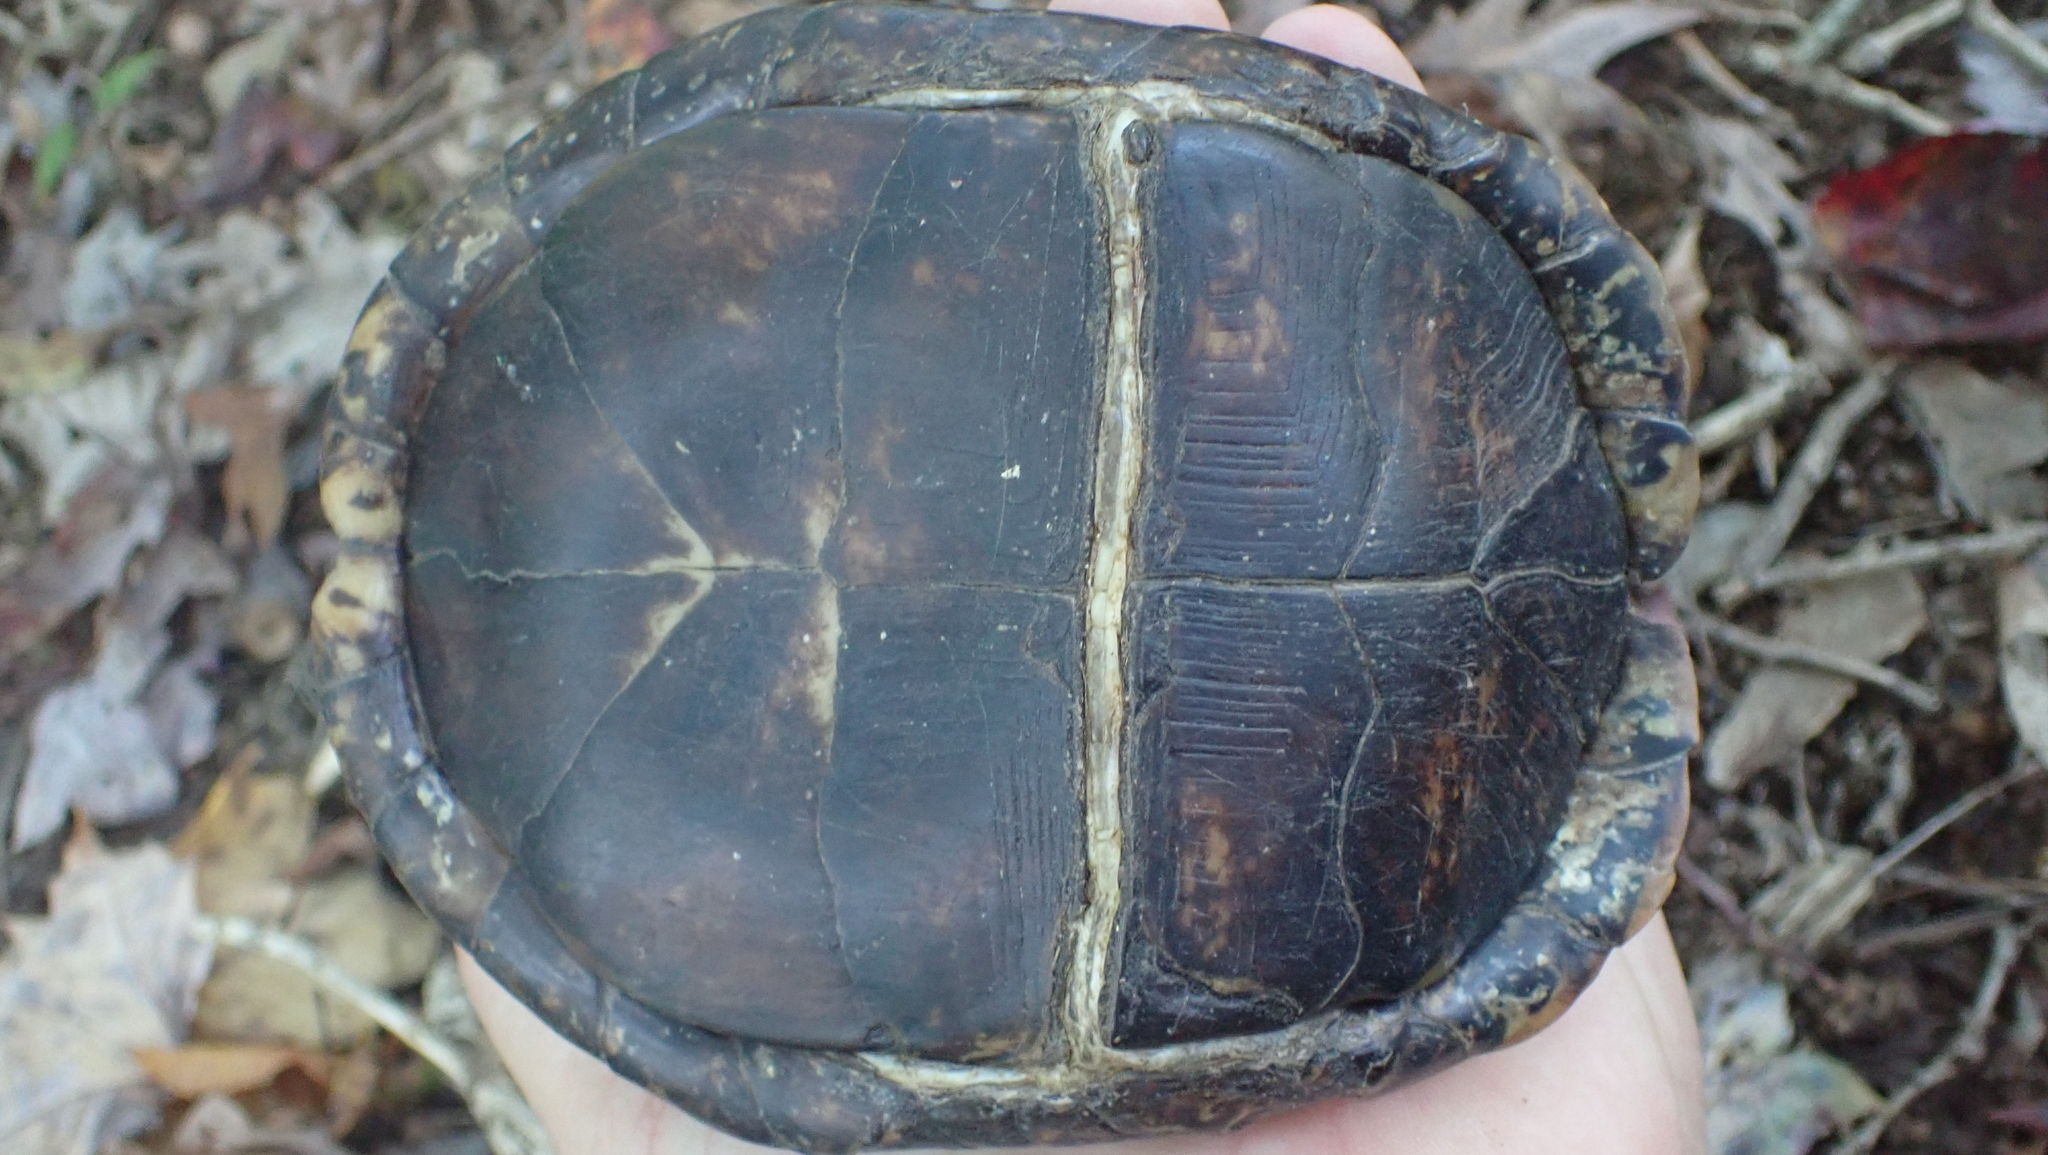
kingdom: Animalia
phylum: Chordata
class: Testudines
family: Emydidae
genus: Terrapene
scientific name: Terrapene carolina
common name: Common box turtle
